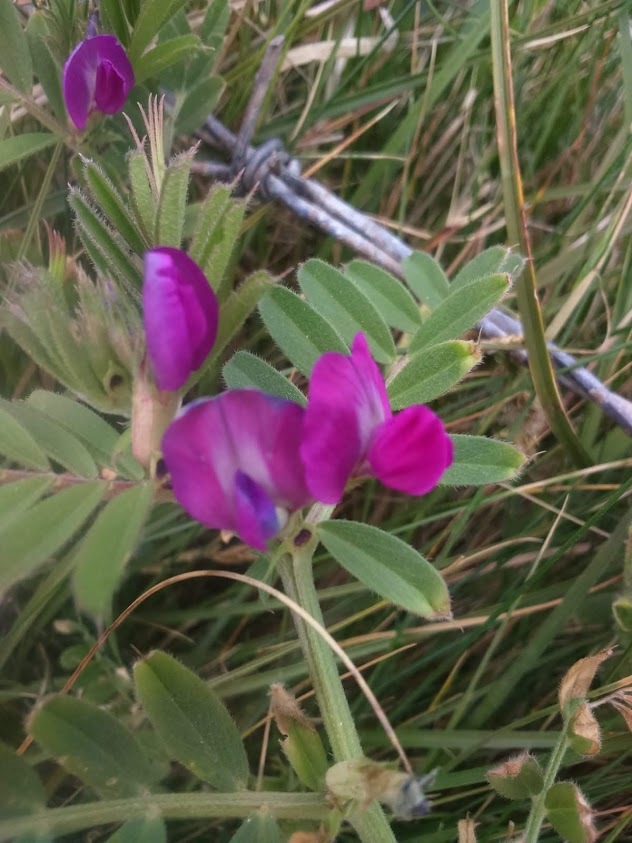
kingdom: Plantae
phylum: Tracheophyta
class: Magnoliopsida
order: Fabales
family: Fabaceae
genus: Vicia
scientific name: Vicia sativa
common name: Garden vetch
